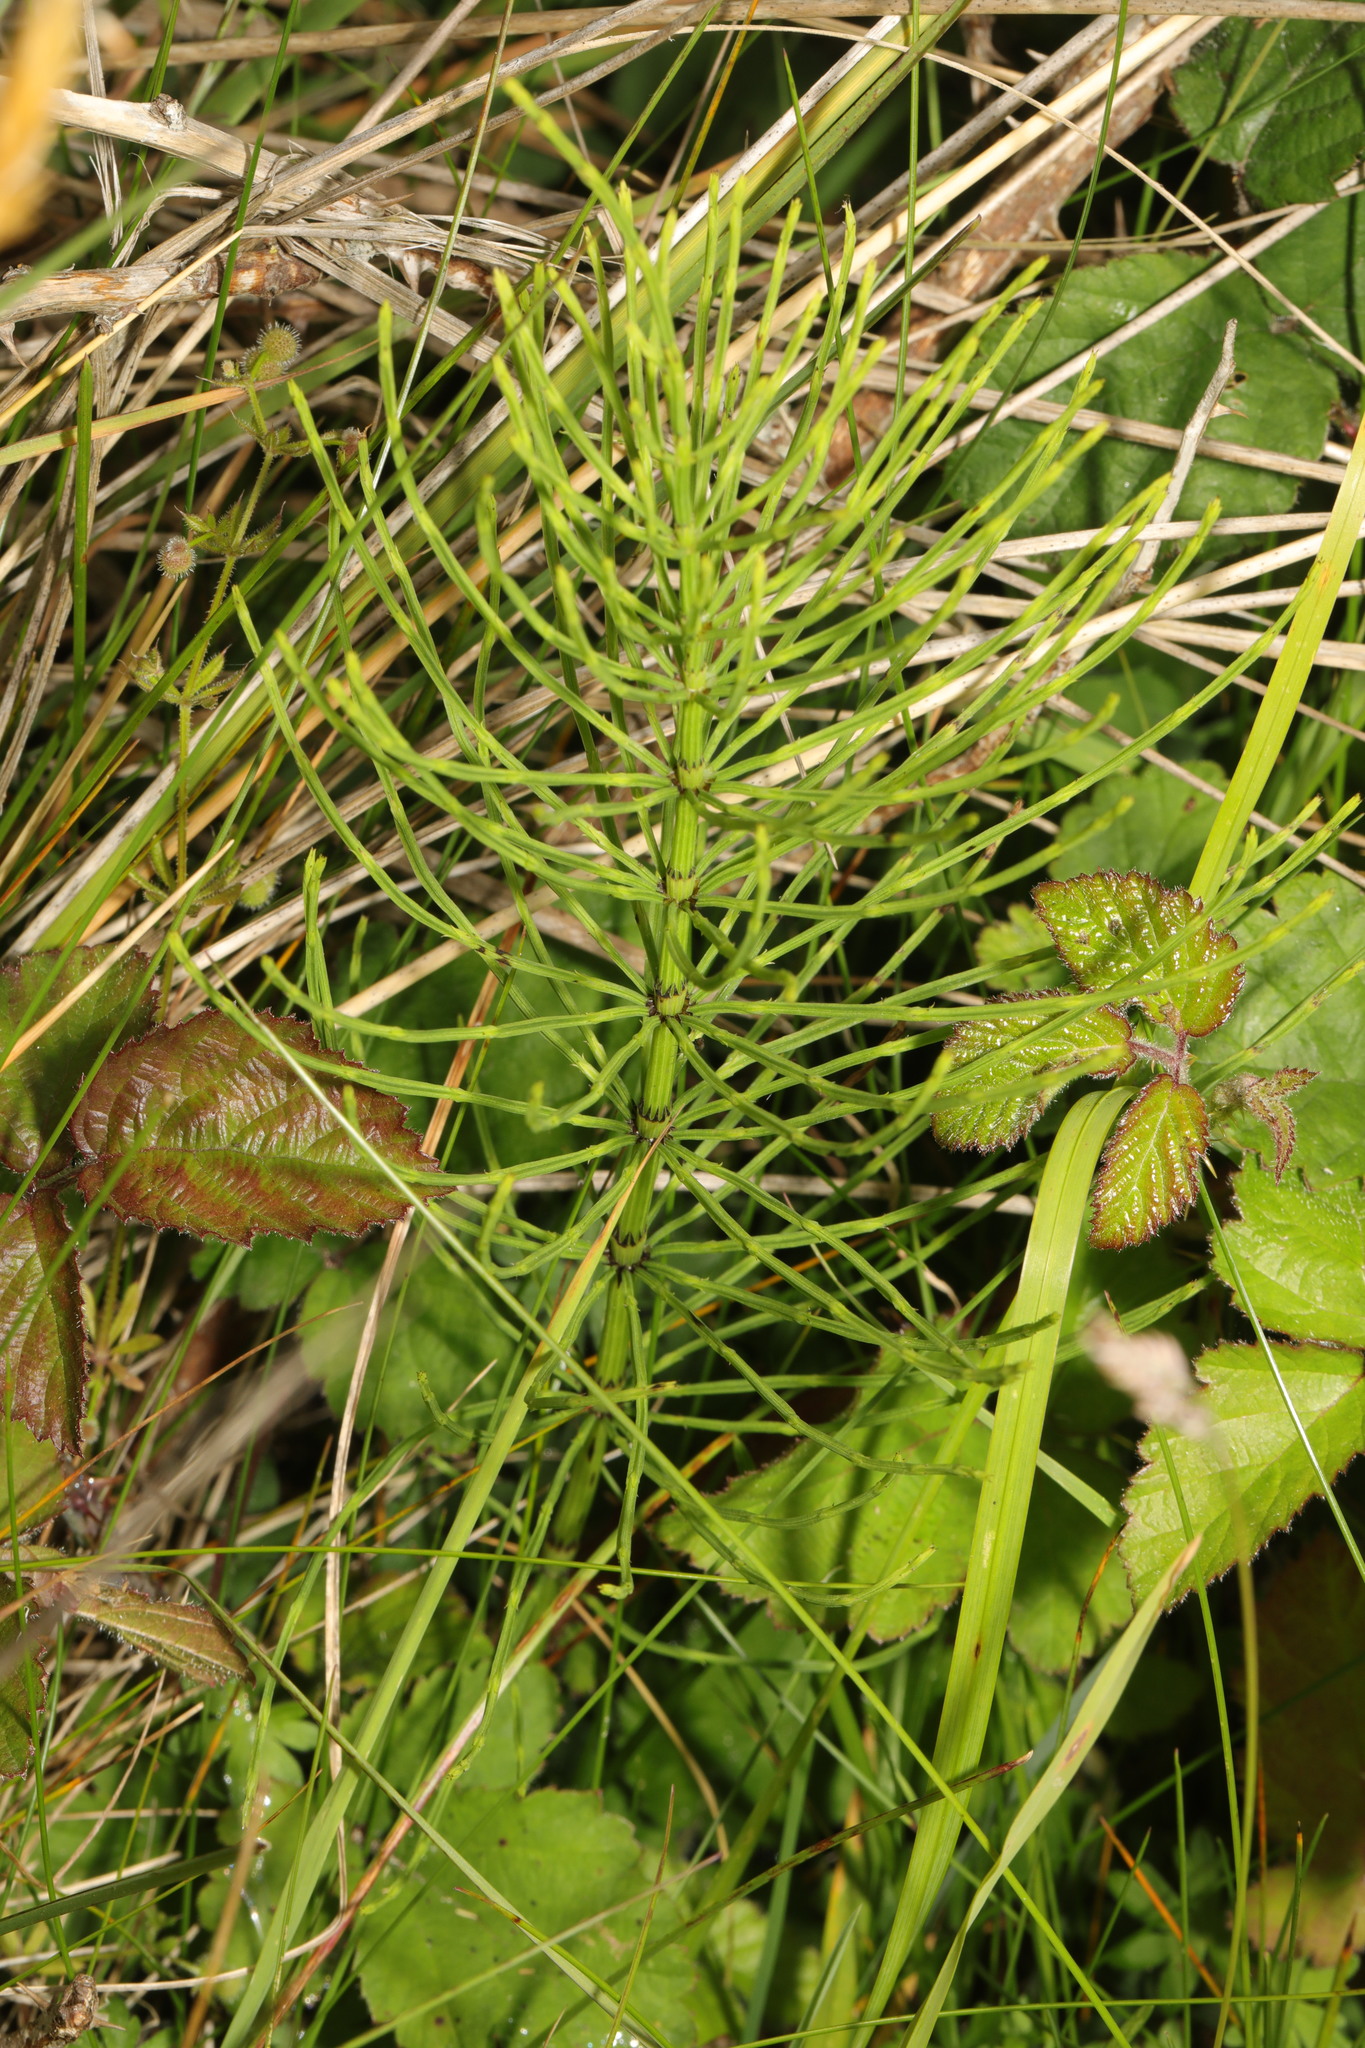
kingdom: Plantae
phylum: Tracheophyta
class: Polypodiopsida
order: Equisetales
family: Equisetaceae
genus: Equisetum
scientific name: Equisetum arvense
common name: Field horsetail
